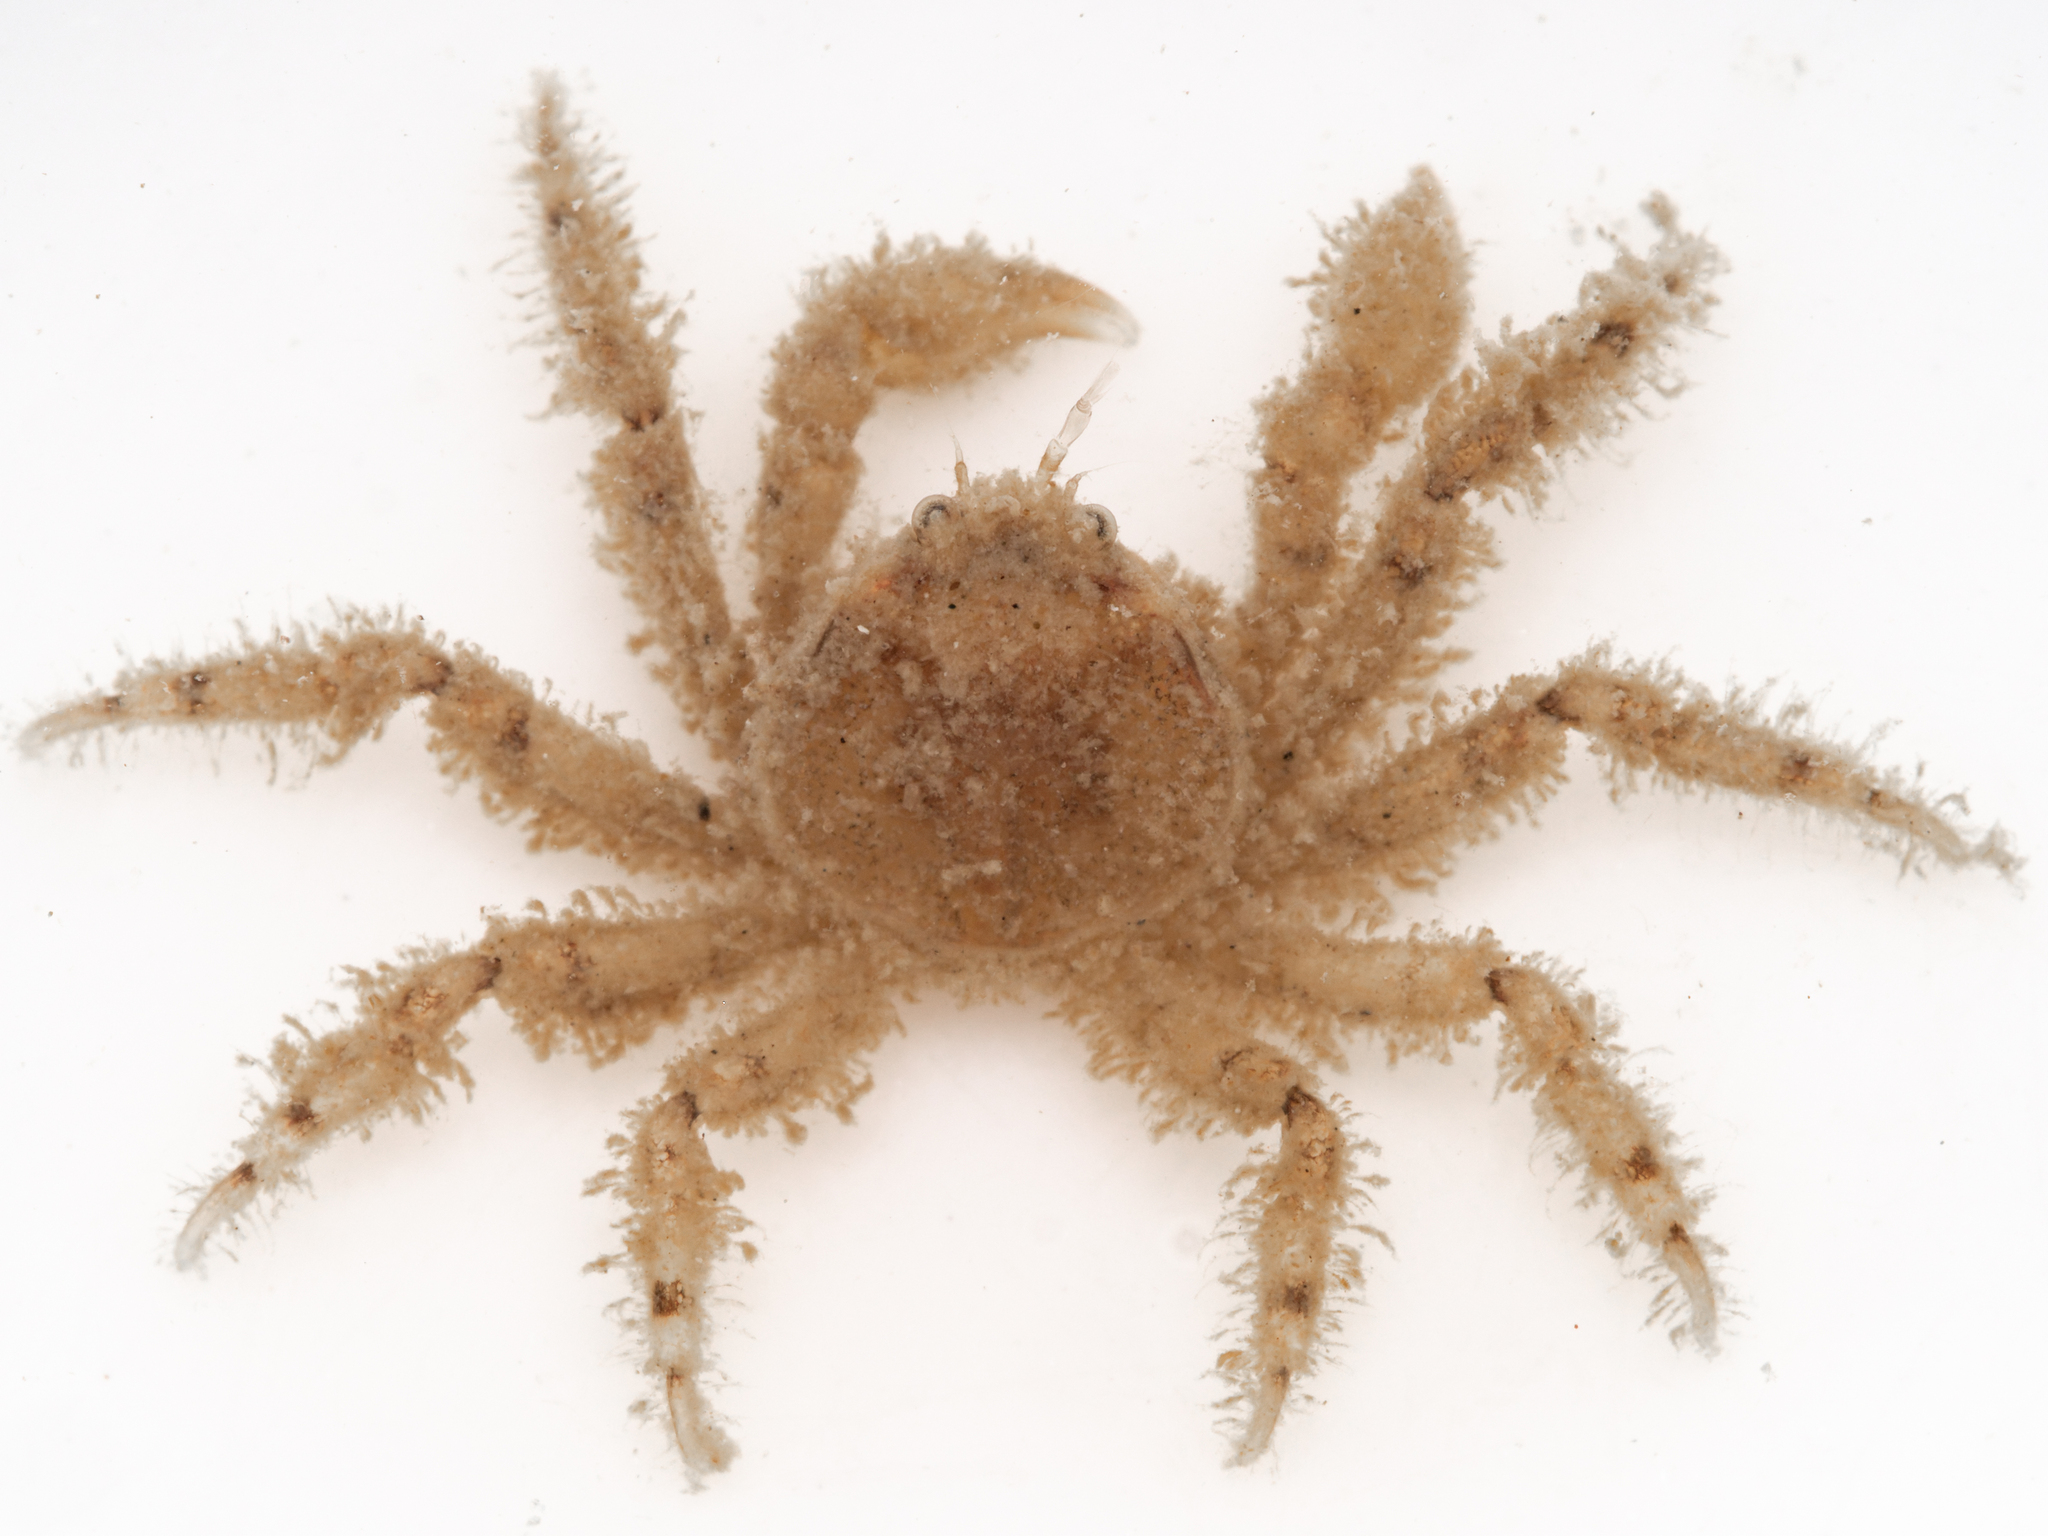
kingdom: Animalia
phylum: Arthropoda
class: Malacostraca
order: Decapoda
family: Hymenosomatidae
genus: Neohymenicus
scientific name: Neohymenicus pubescens
